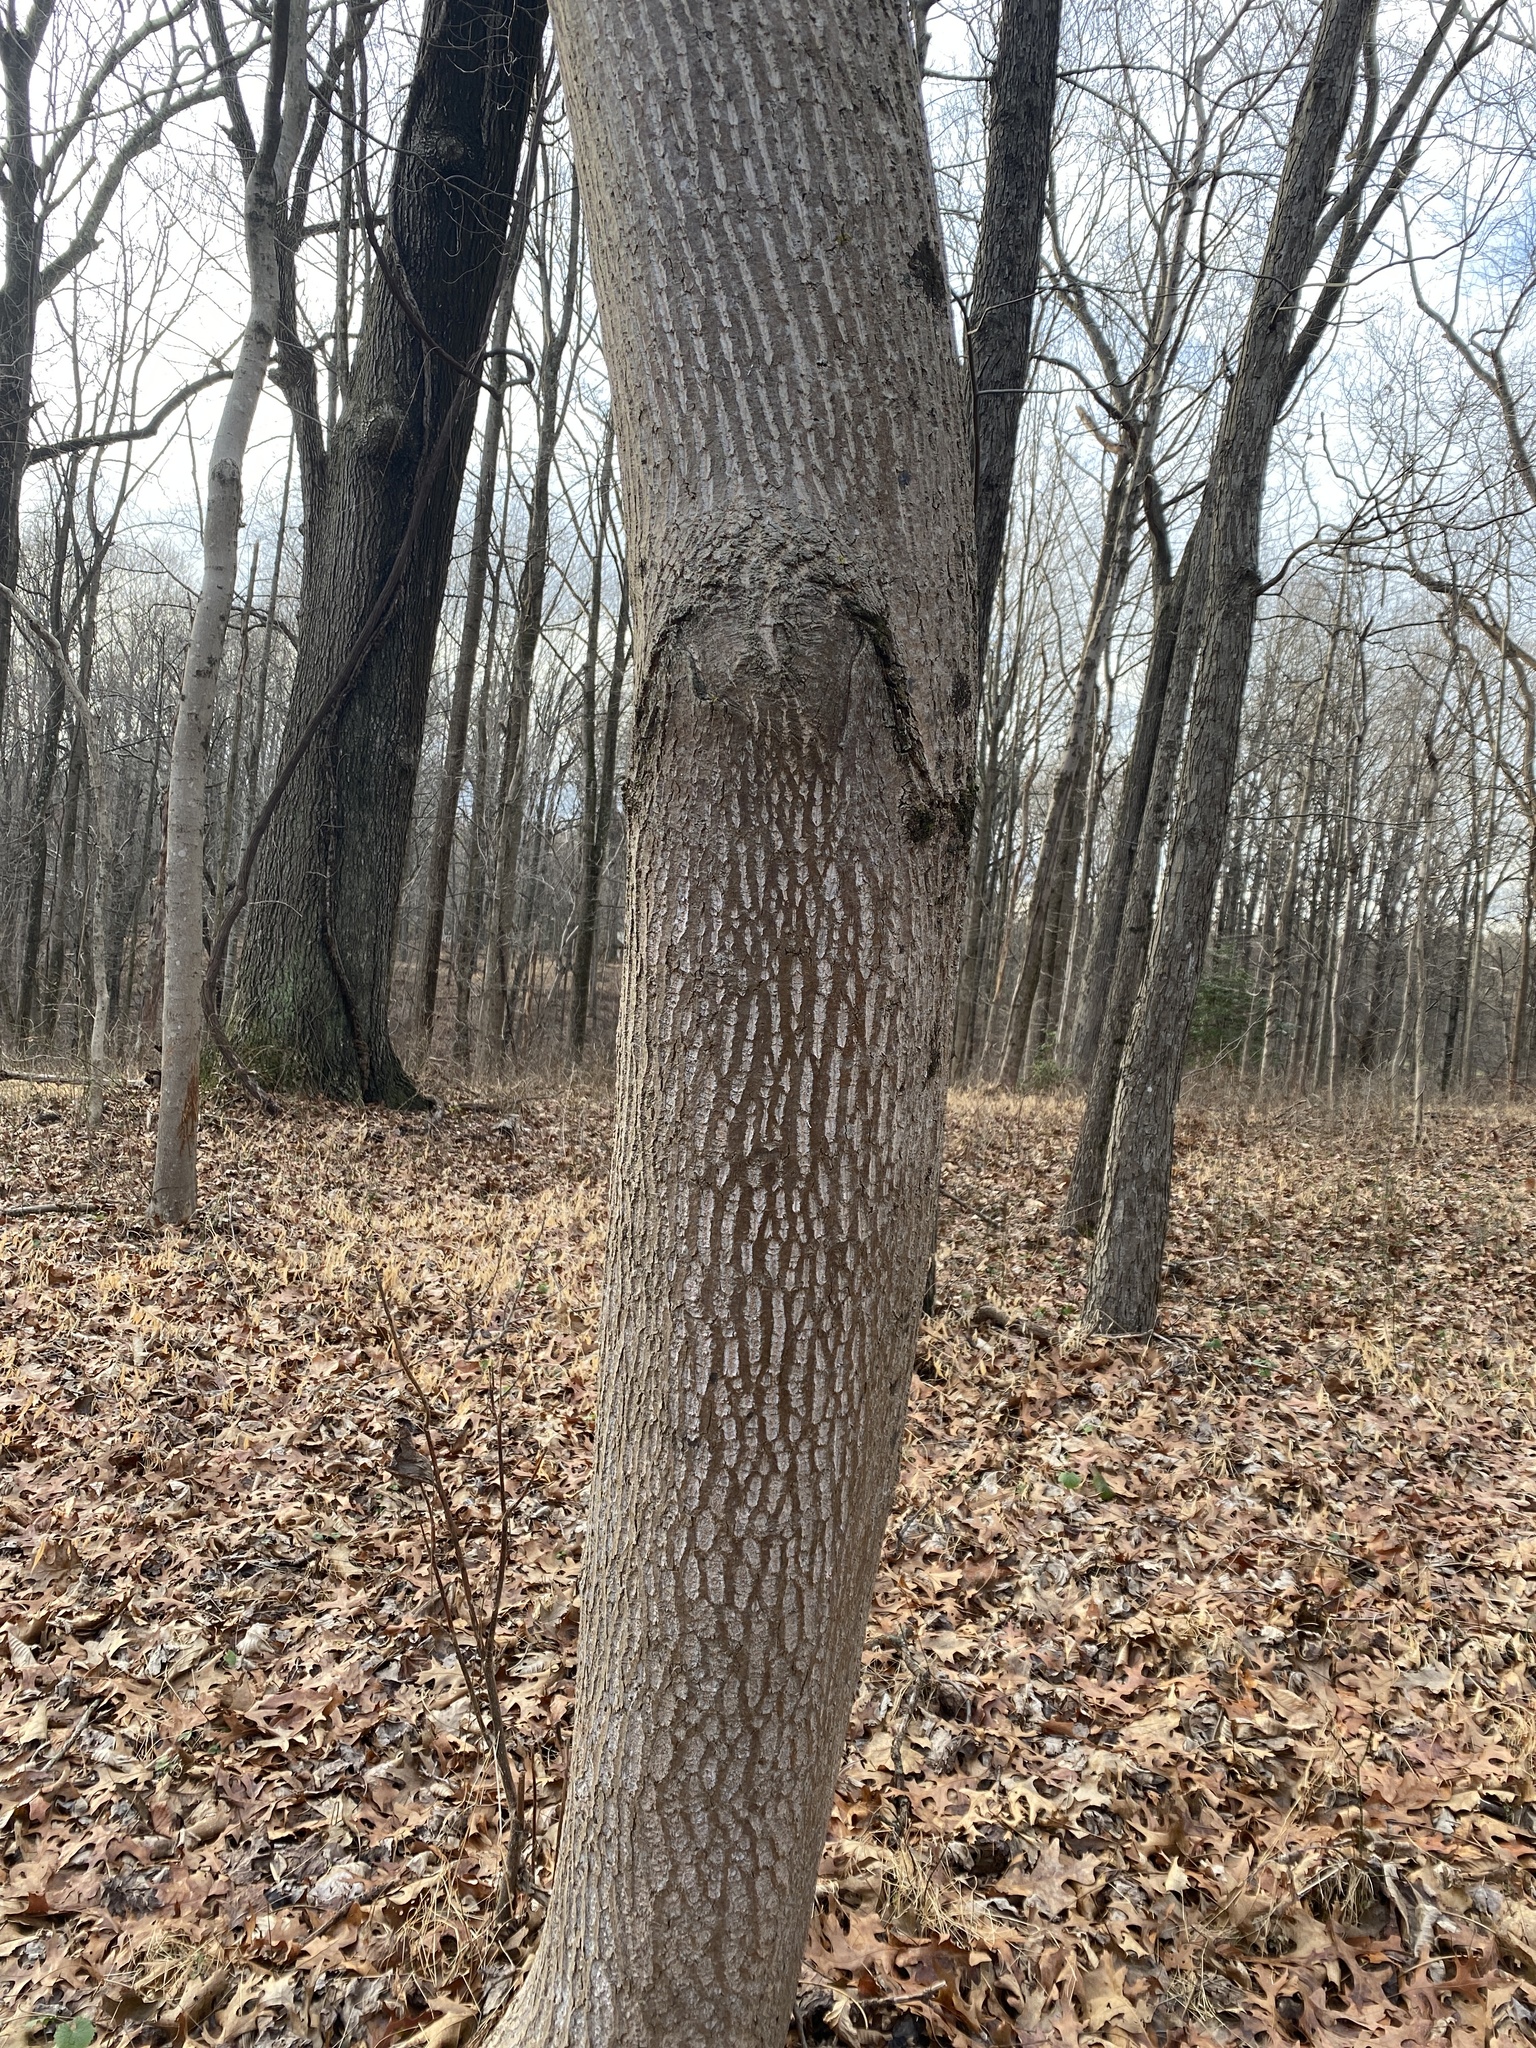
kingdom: Plantae
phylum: Tracheophyta
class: Magnoliopsida
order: Magnoliales
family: Magnoliaceae
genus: Liriodendron
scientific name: Liriodendron tulipifera
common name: Tulip tree
